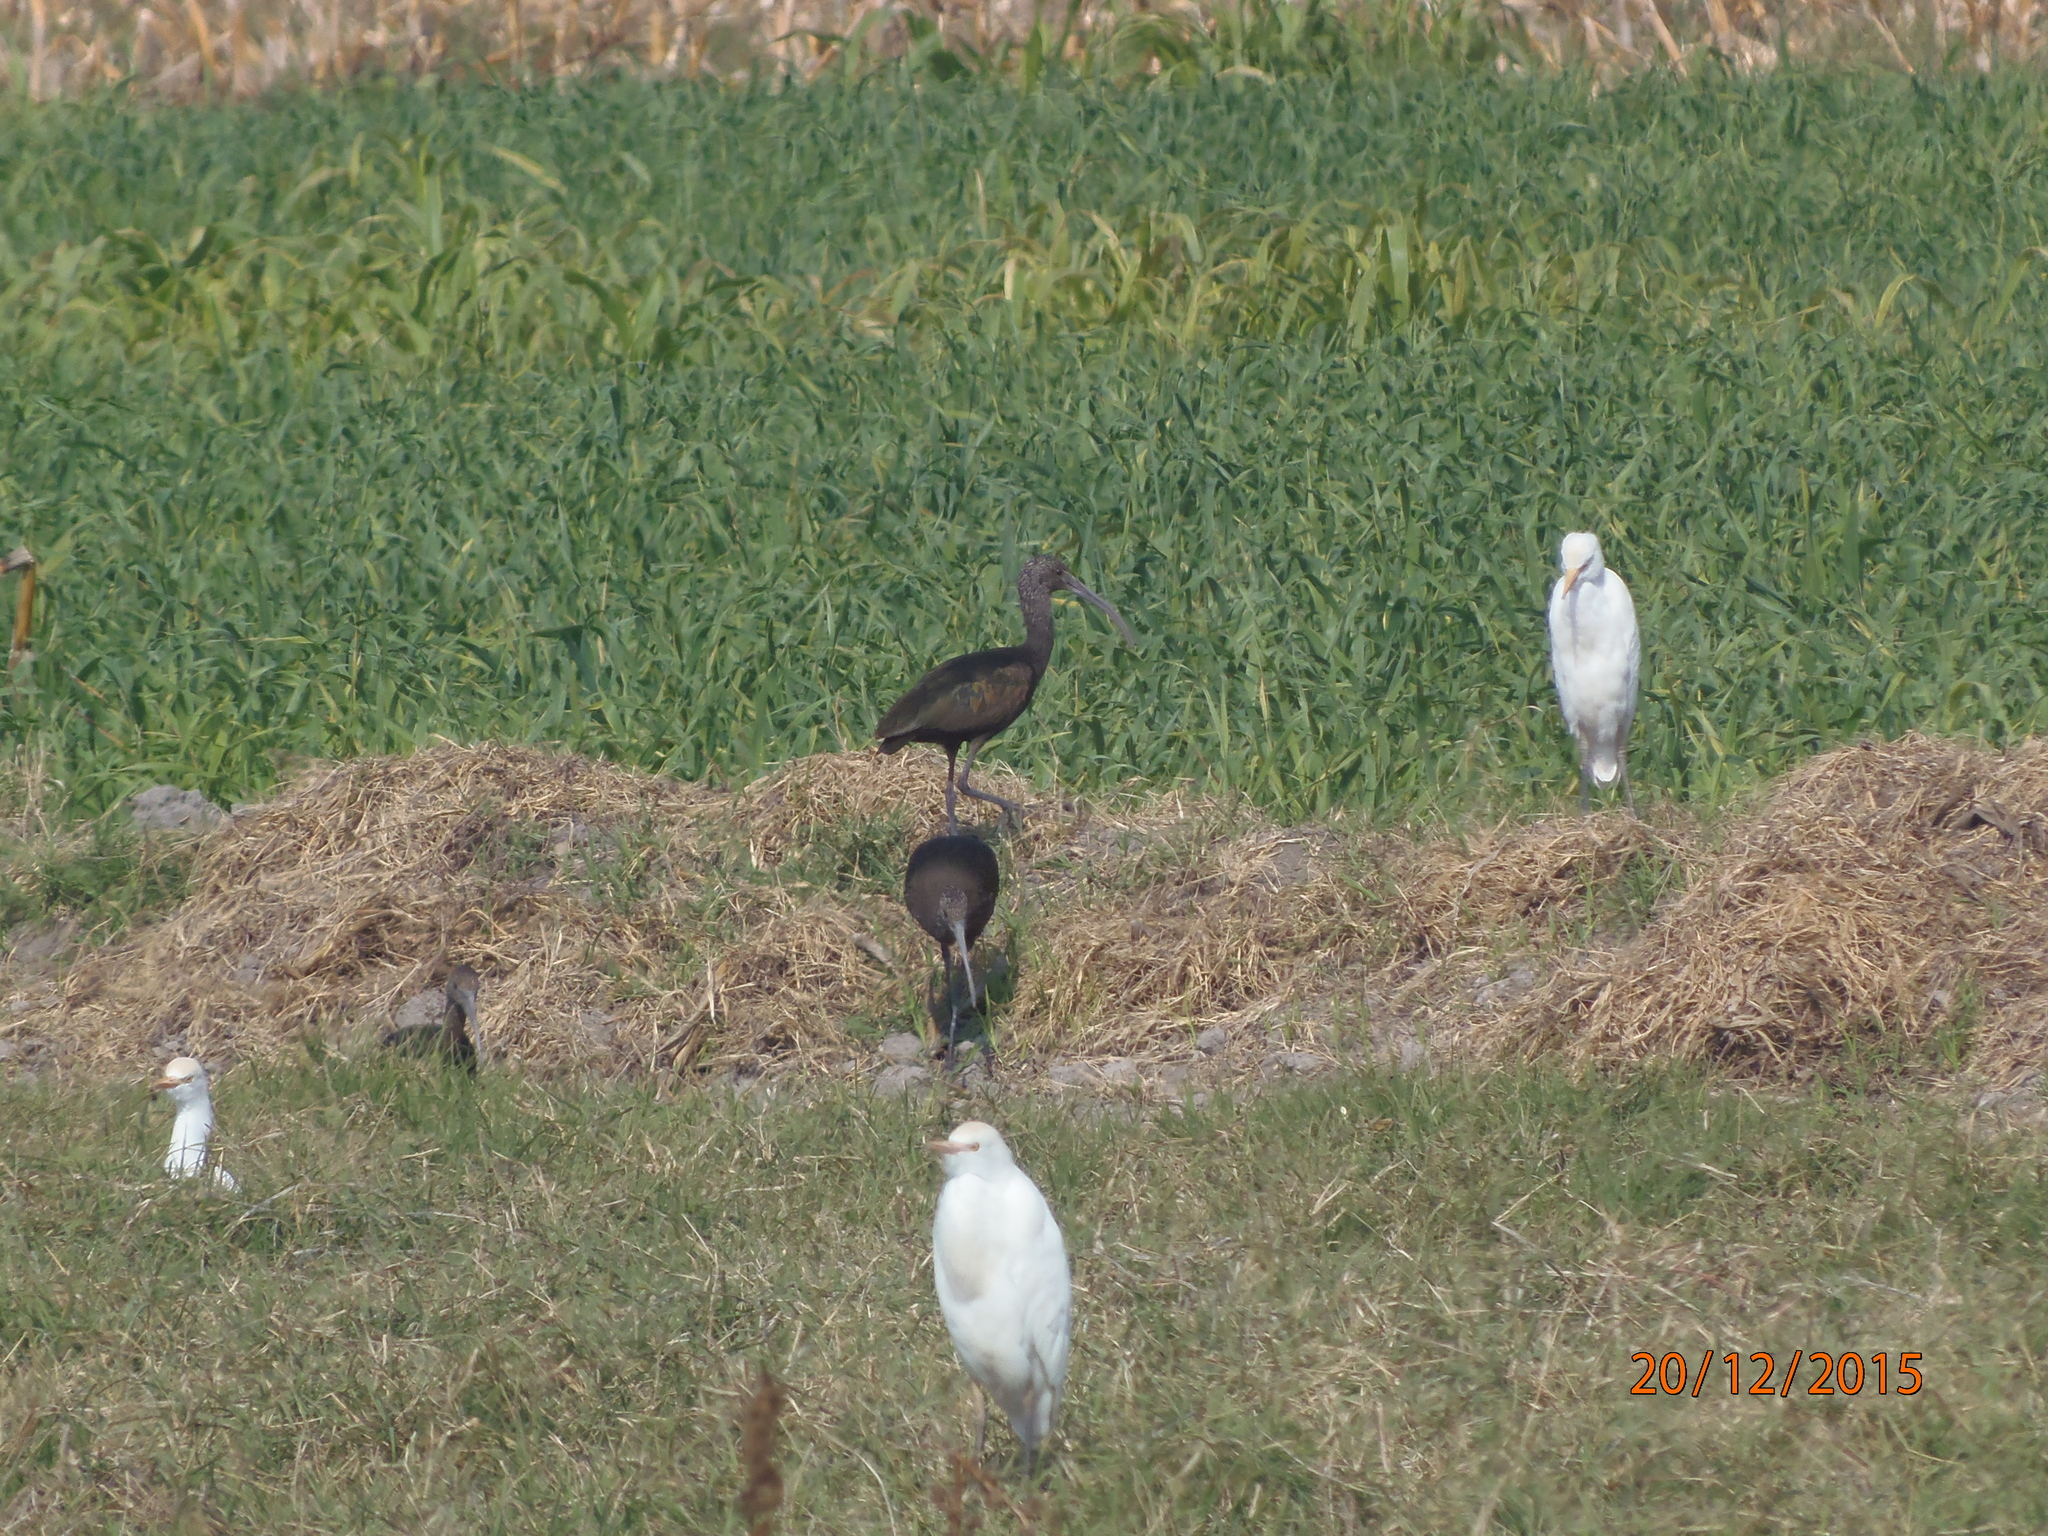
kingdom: Animalia
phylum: Chordata
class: Aves
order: Pelecaniformes
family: Threskiornithidae
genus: Plegadis
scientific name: Plegadis chihi
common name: White-faced ibis
